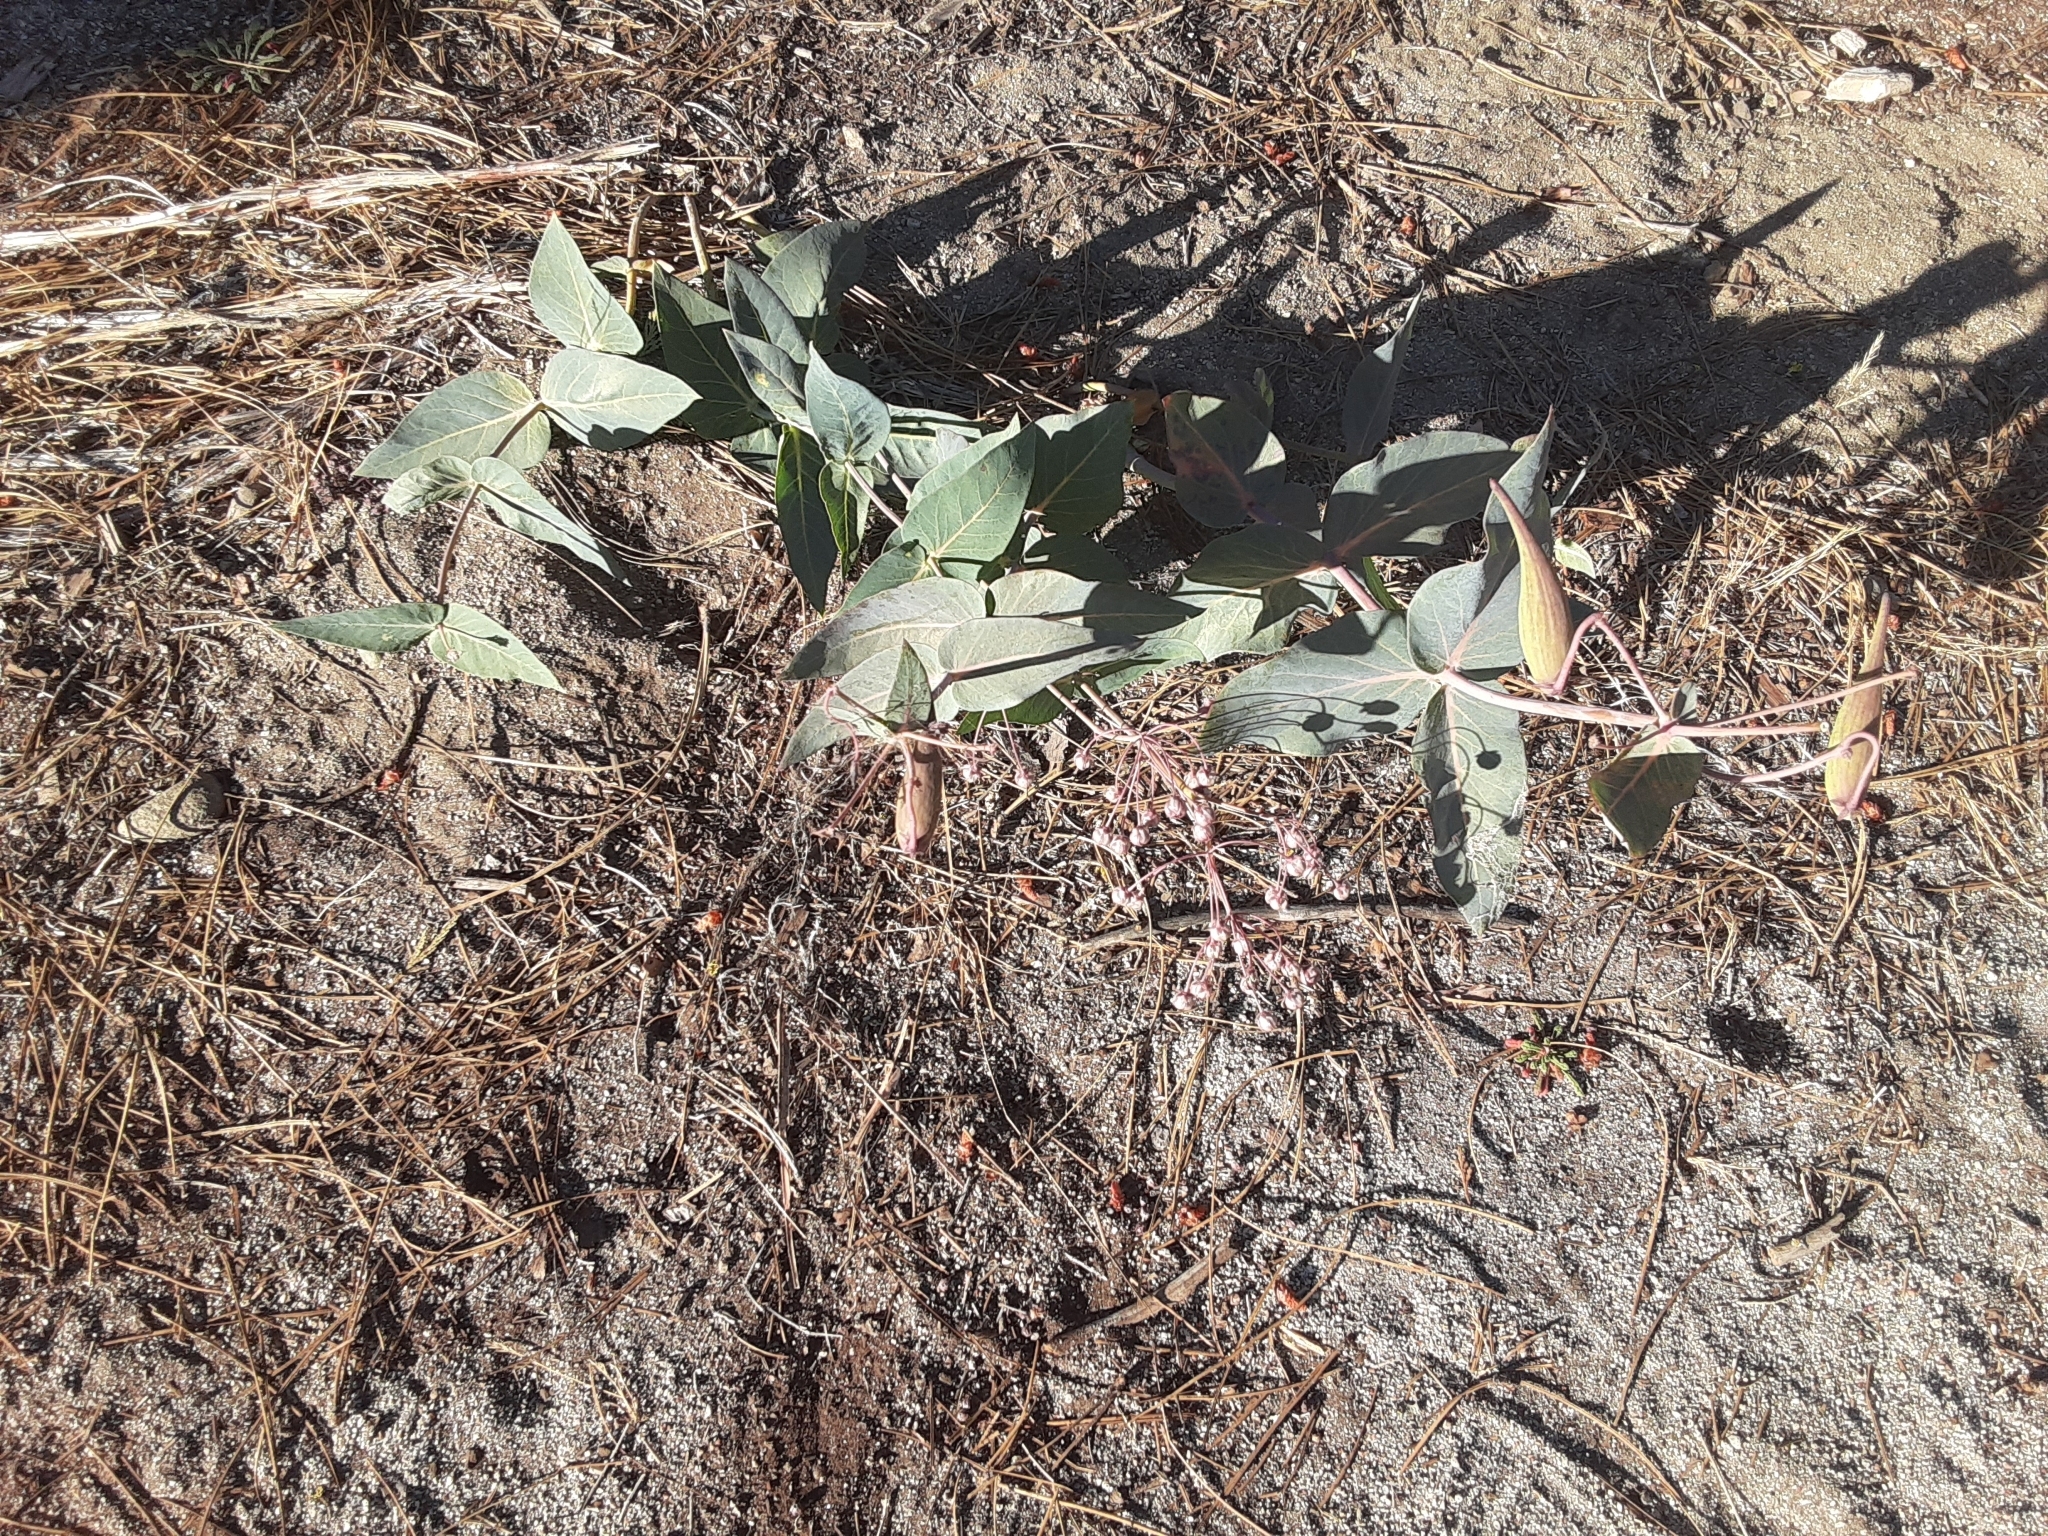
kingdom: Plantae
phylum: Tracheophyta
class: Magnoliopsida
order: Gentianales
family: Apocynaceae
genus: Asclepias
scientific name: Asclepias cordifolia
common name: Purple milkweed
